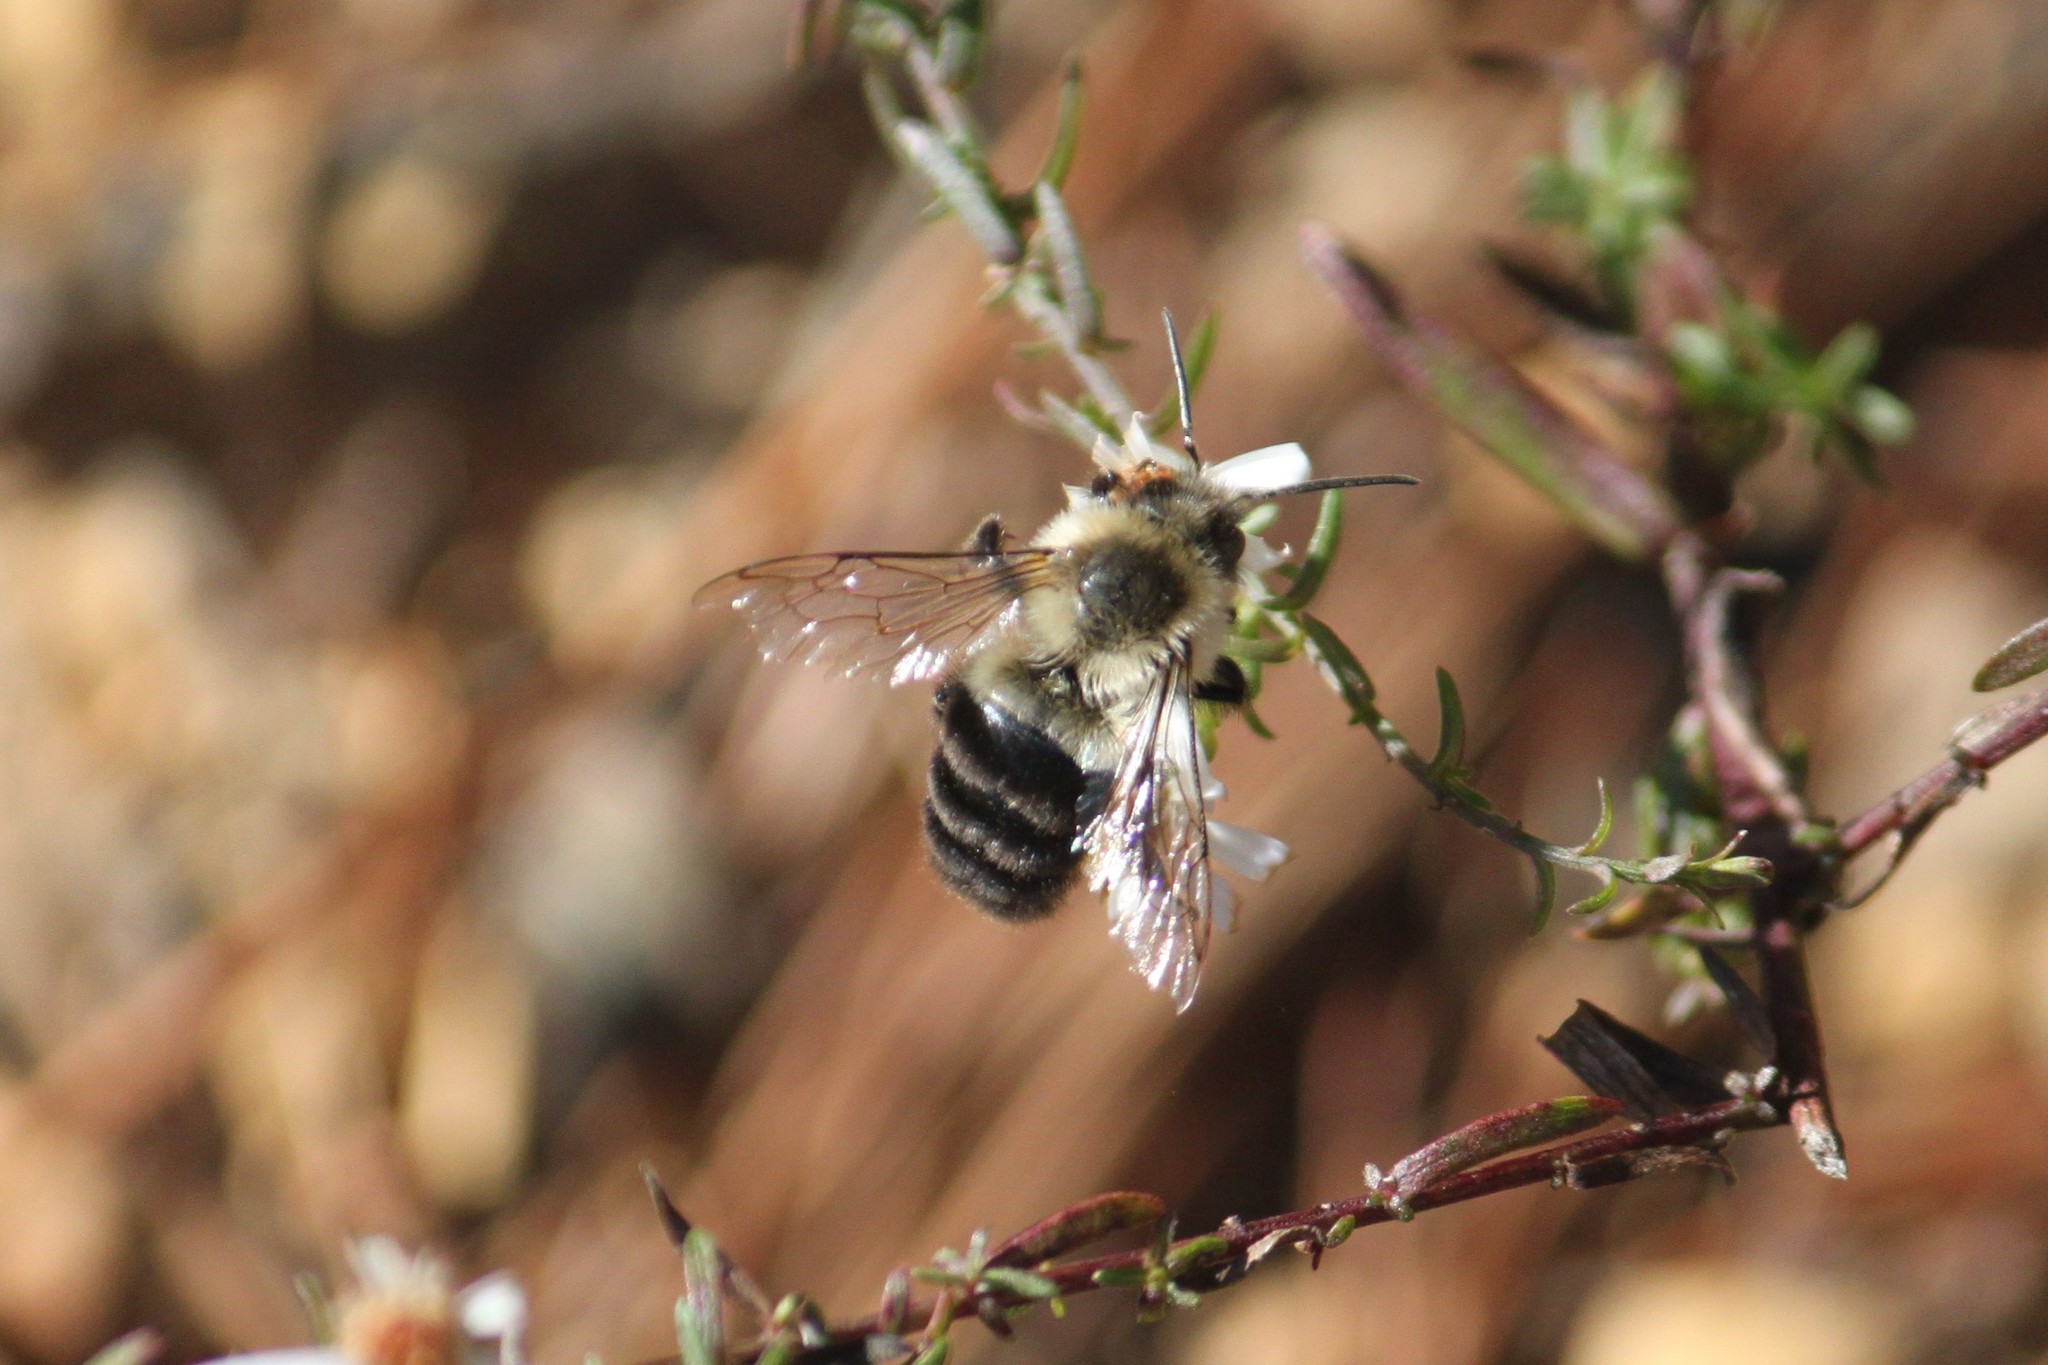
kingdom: Animalia
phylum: Arthropoda
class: Insecta
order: Hymenoptera
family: Apidae
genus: Bombus
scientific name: Bombus impatiens
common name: Common eastern bumble bee
